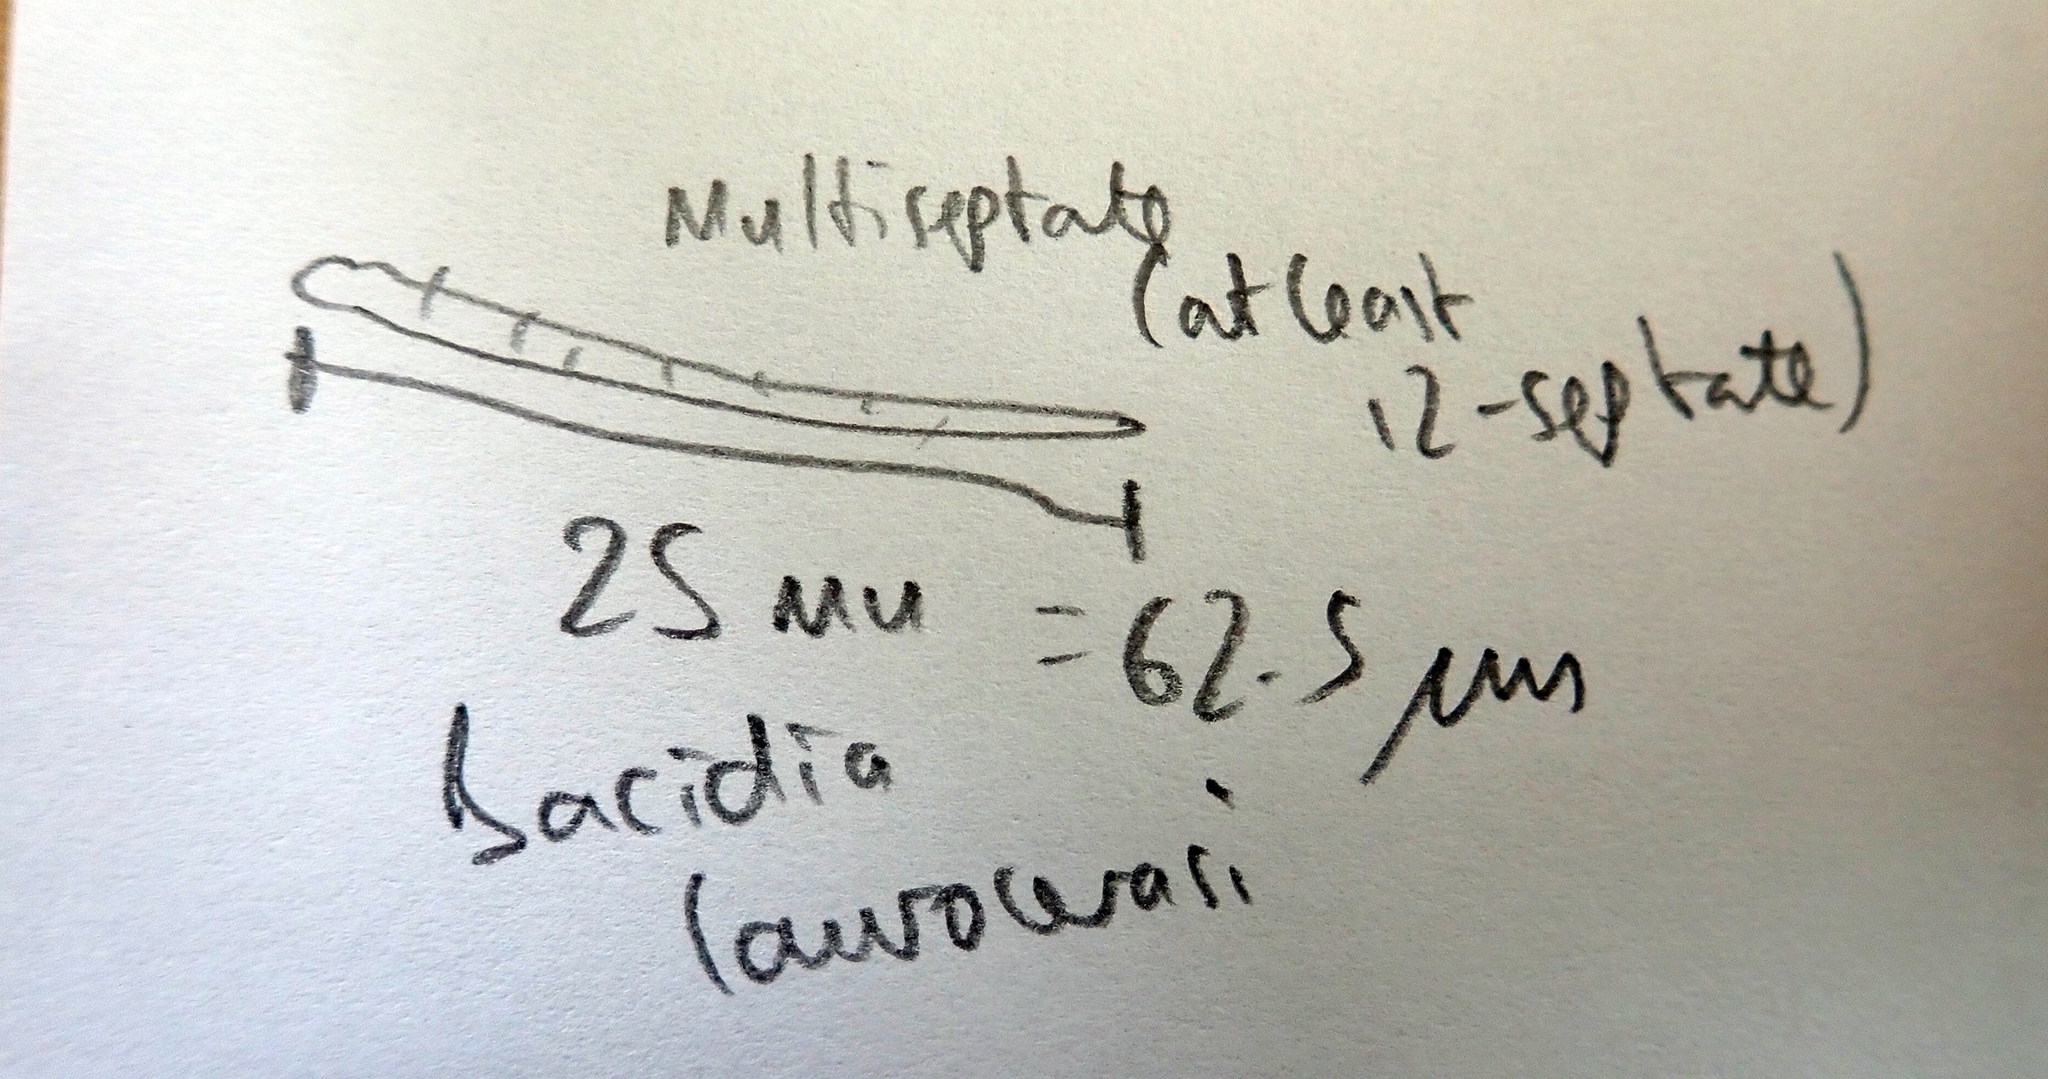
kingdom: Fungi
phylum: Ascomycota
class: Lecanoromycetes
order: Lecanorales
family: Ramalinaceae
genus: Bacidia
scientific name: Bacidia laurocerasi
